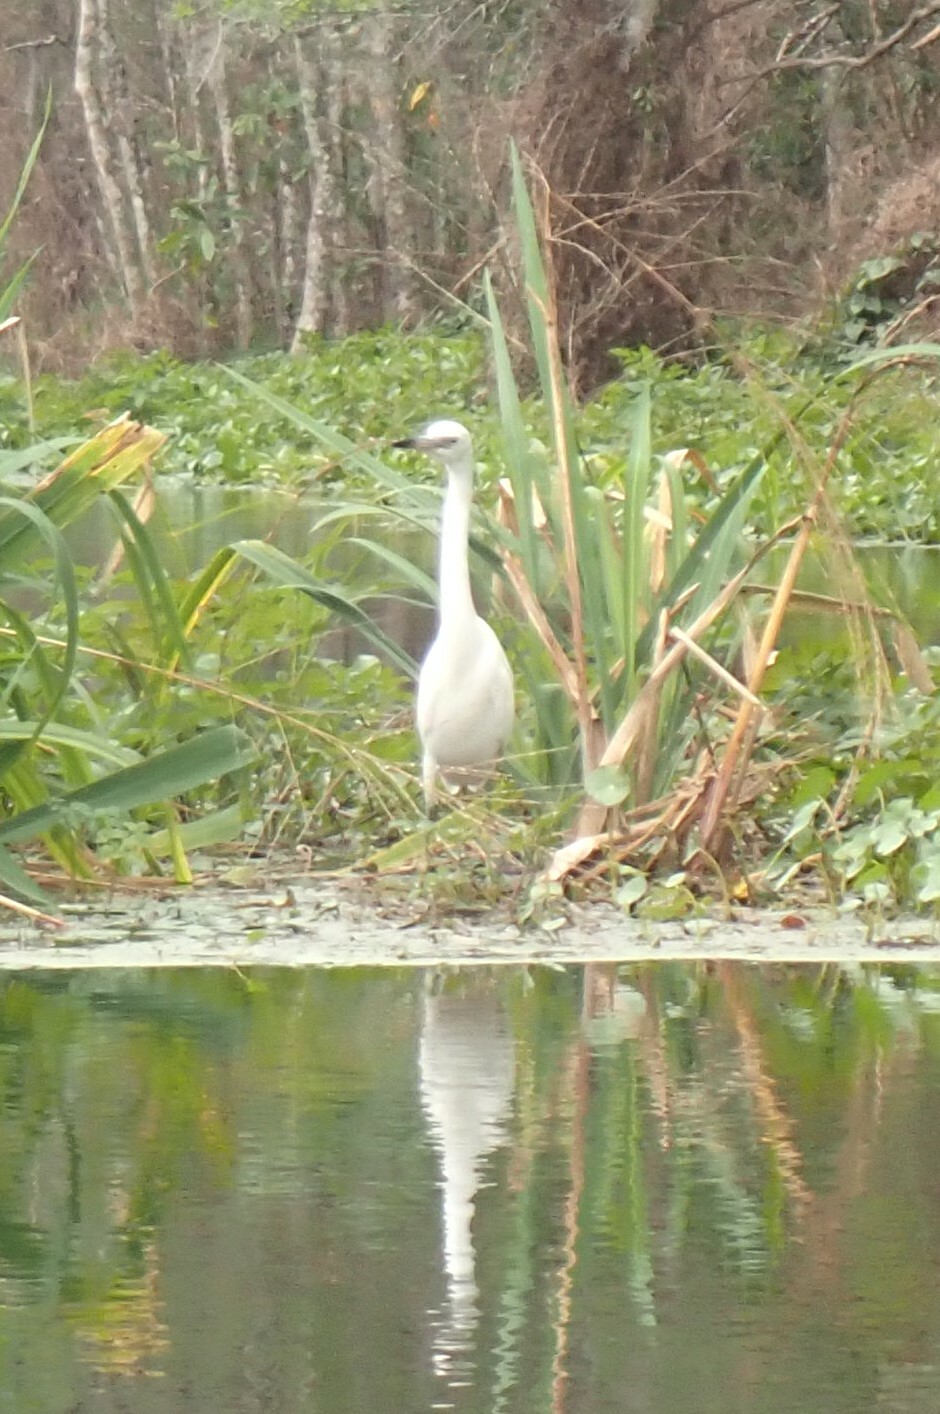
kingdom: Animalia
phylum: Chordata
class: Aves
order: Pelecaniformes
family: Ardeidae
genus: Egretta
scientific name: Egretta caerulea
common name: Little blue heron
